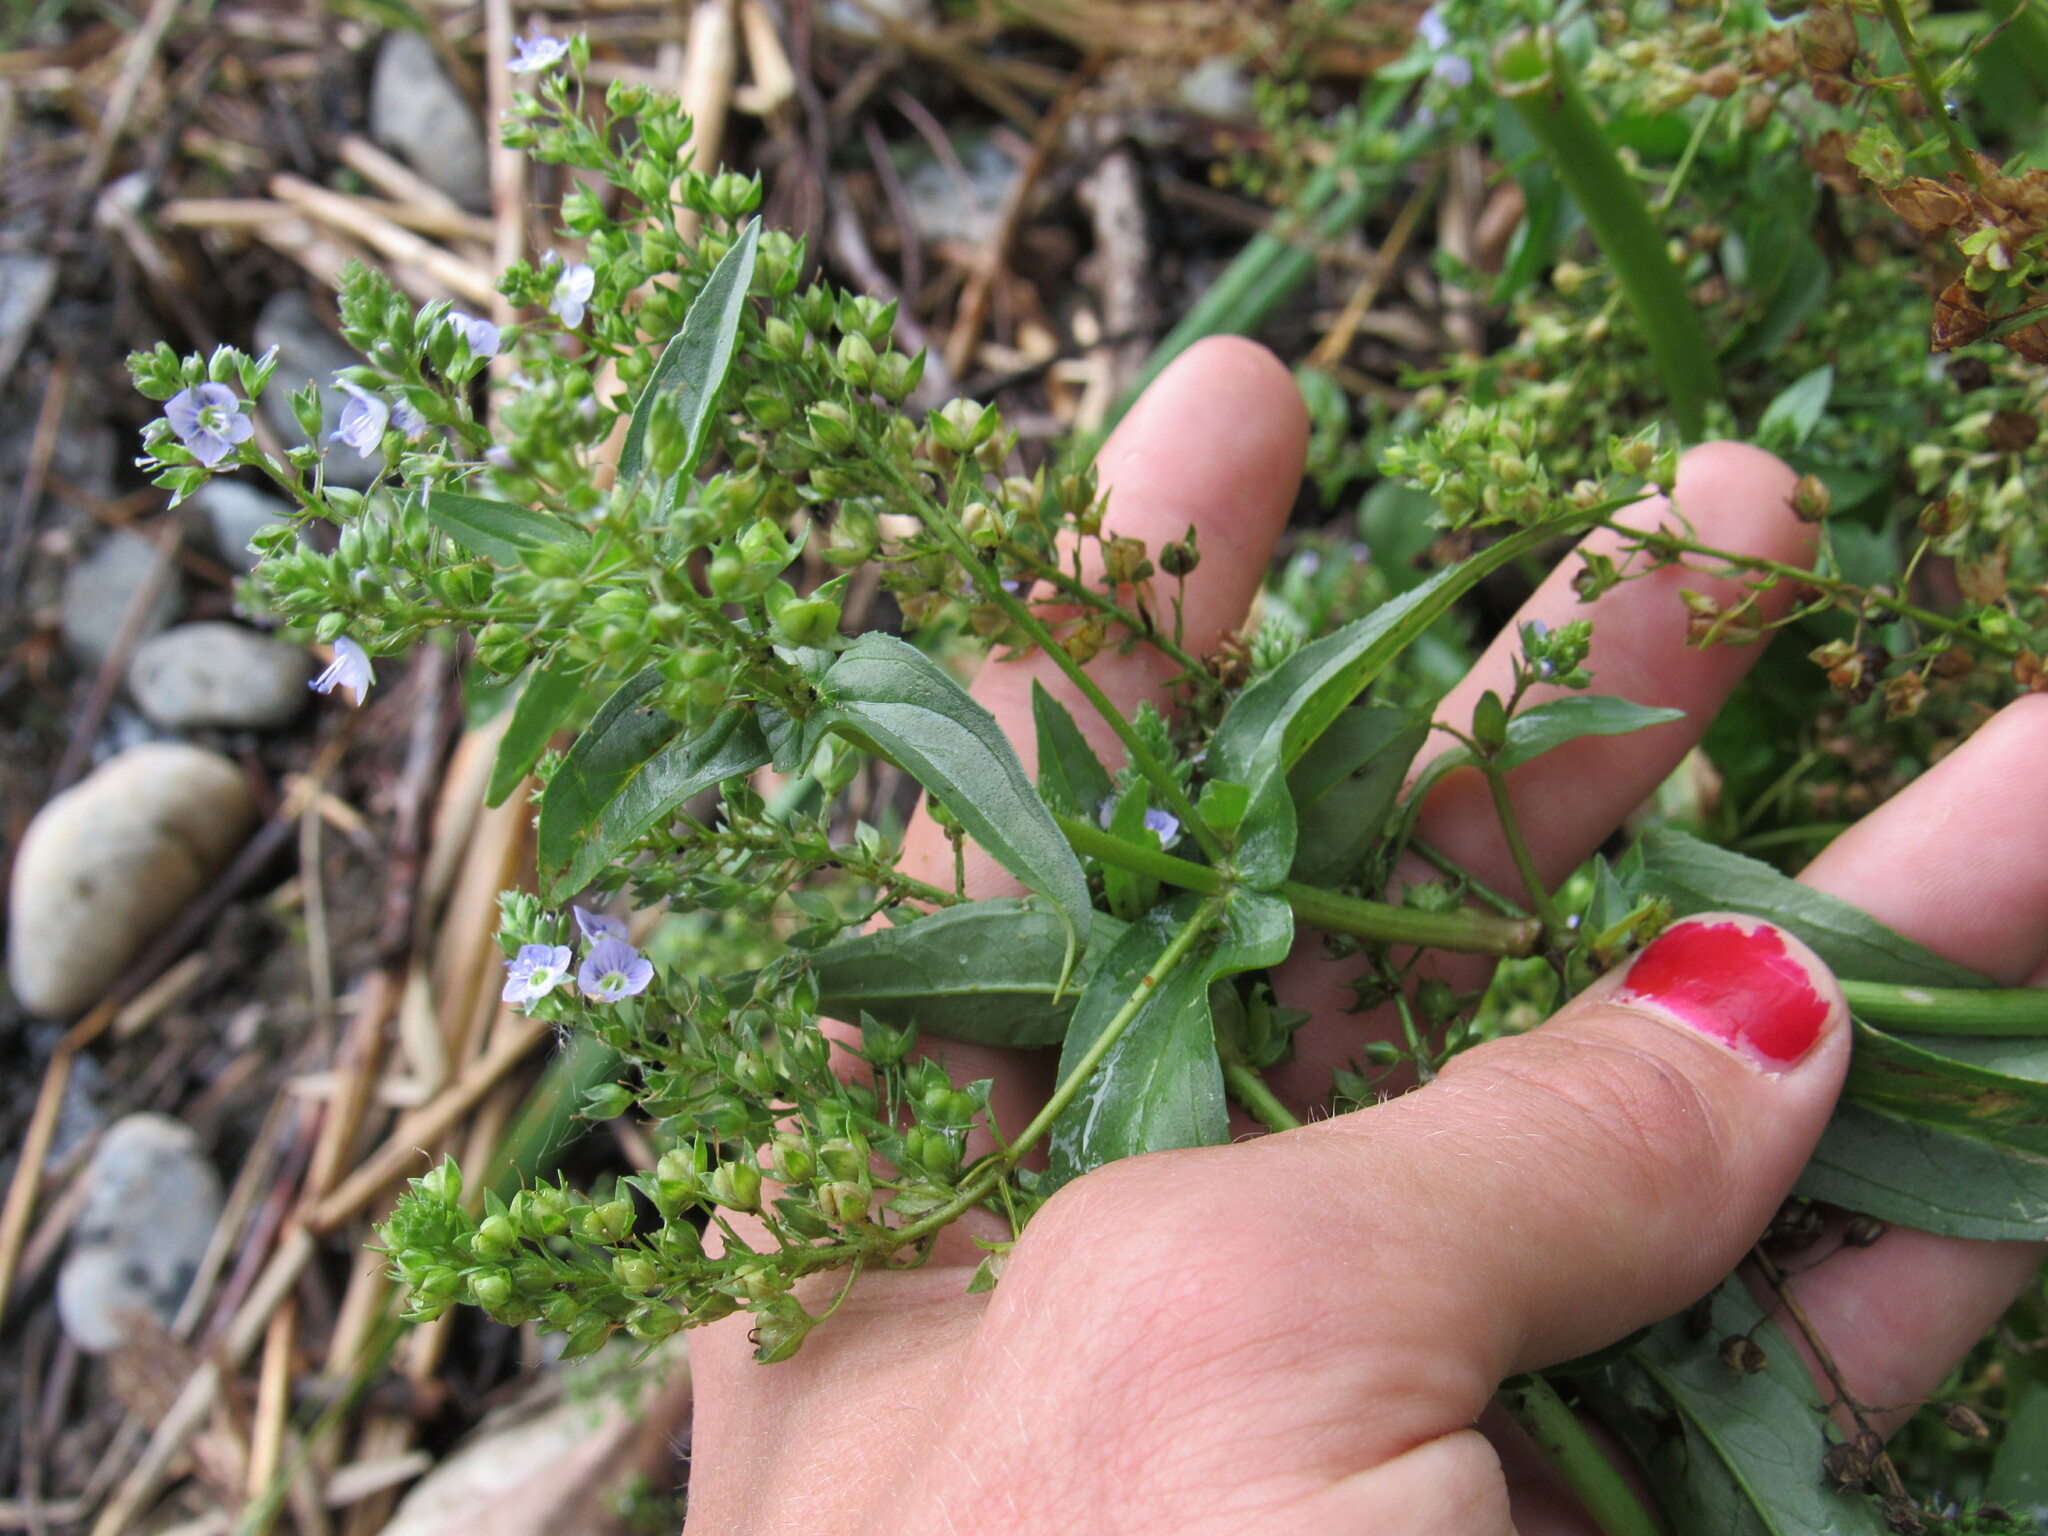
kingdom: Plantae
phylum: Tracheophyta
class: Magnoliopsida
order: Lamiales
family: Plantaginaceae
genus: Veronica
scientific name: Veronica anagallis-aquatica
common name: Water speedwell
